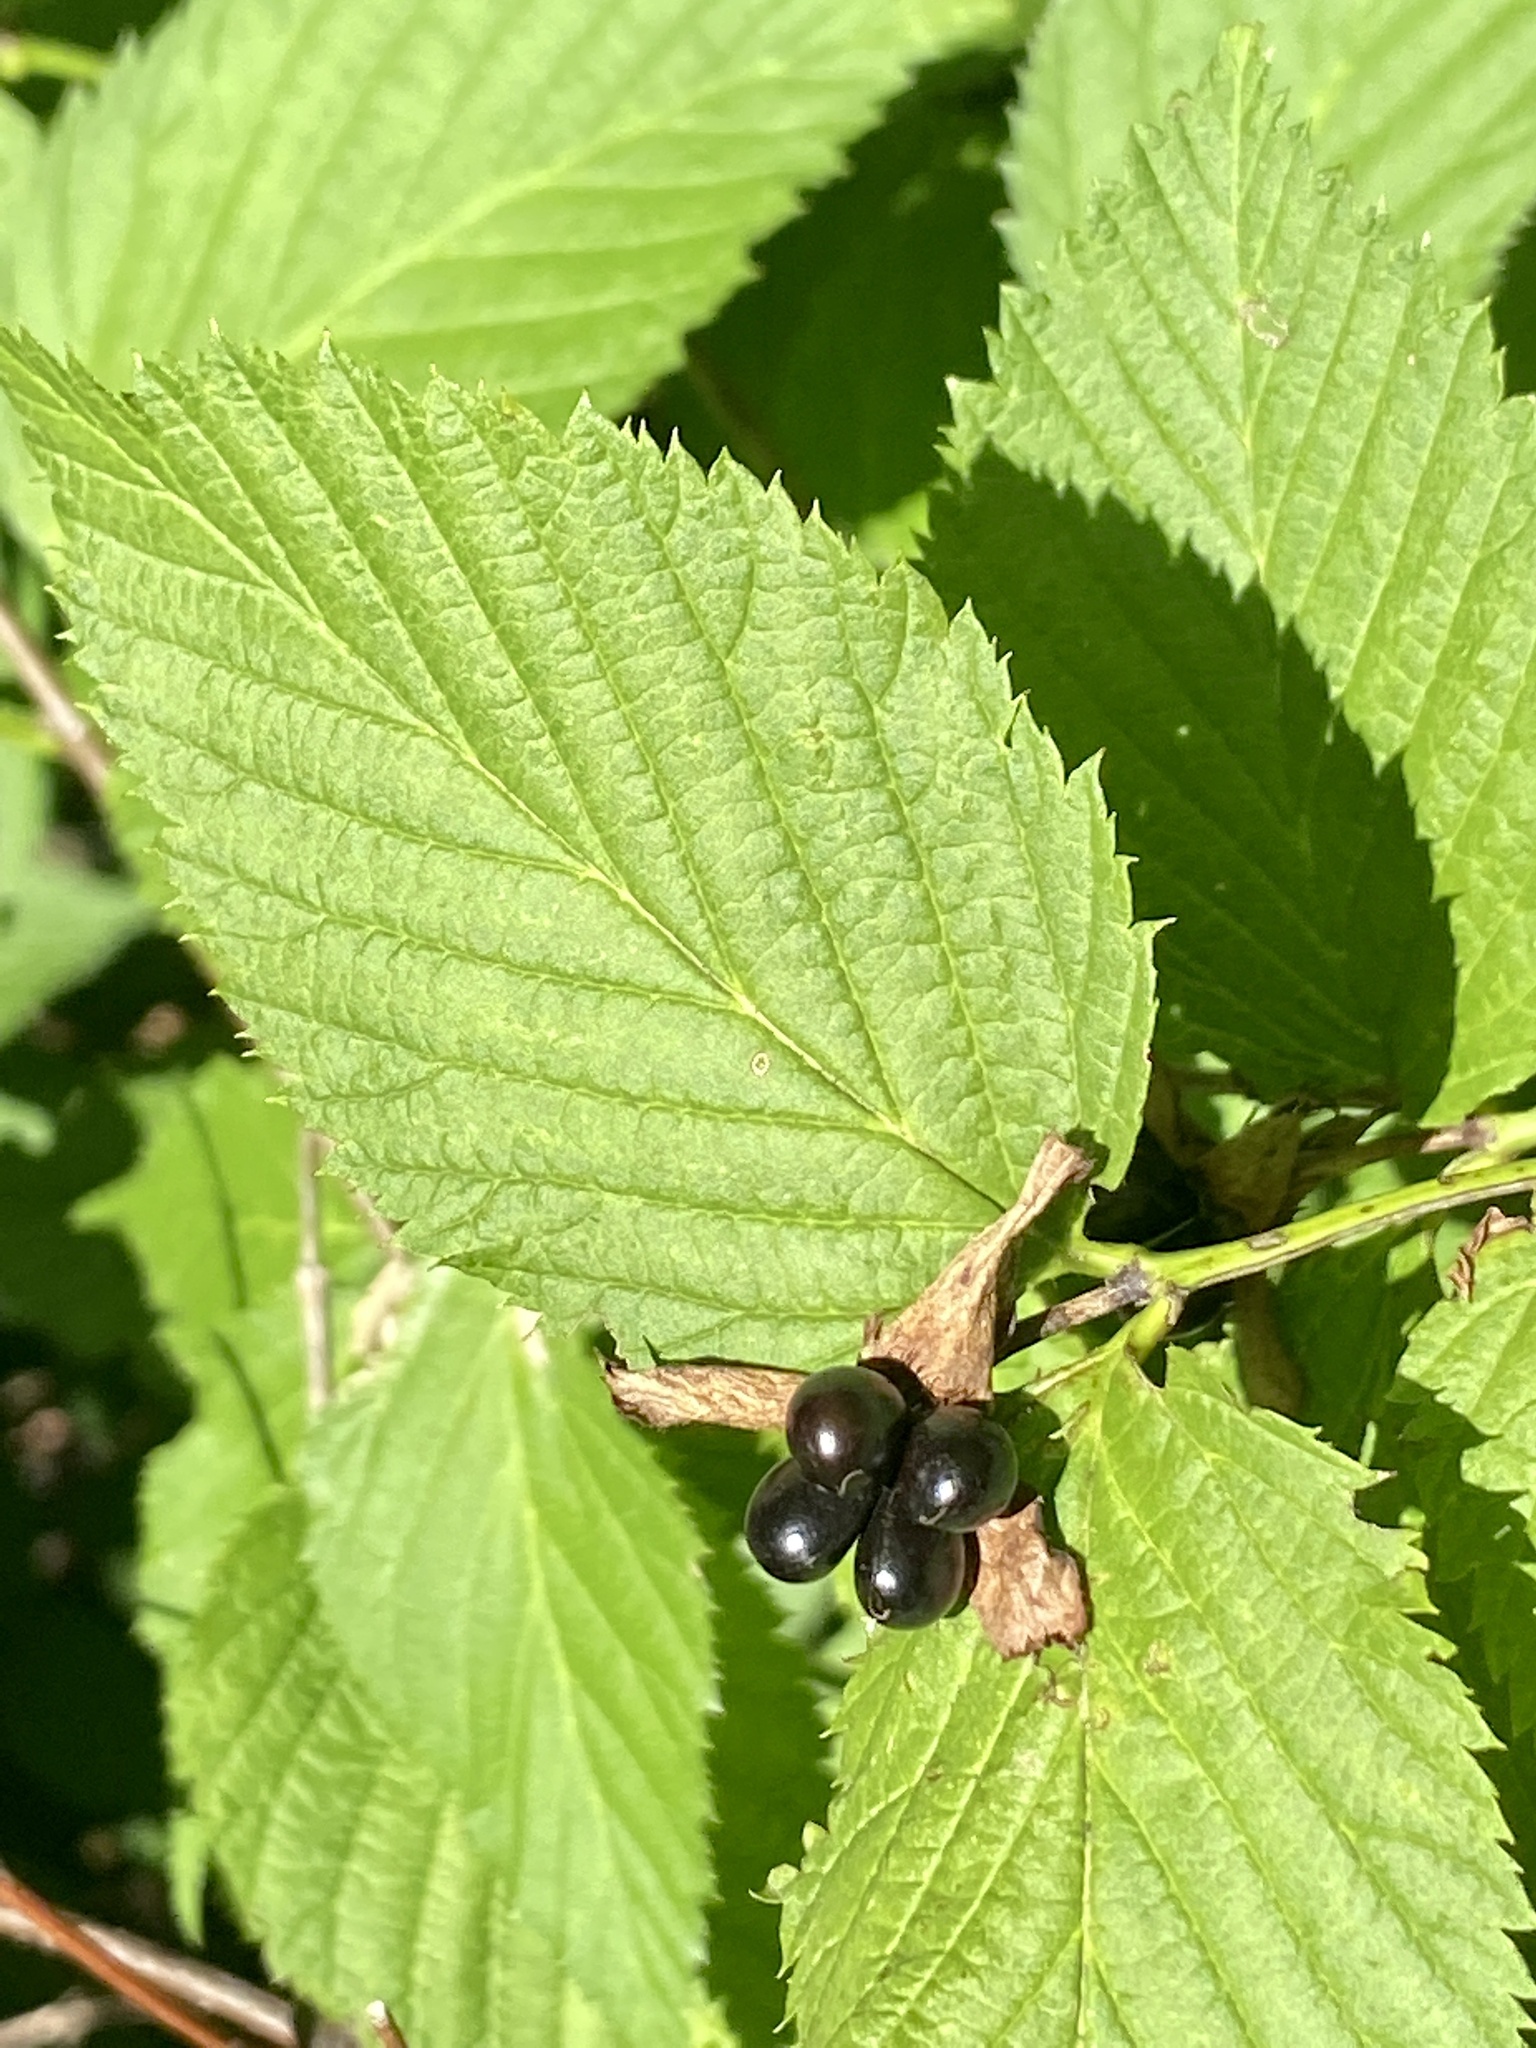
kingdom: Plantae
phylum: Tracheophyta
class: Magnoliopsida
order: Rosales
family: Rosaceae
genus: Rhodotypos
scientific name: Rhodotypos scandens
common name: Jetbead
